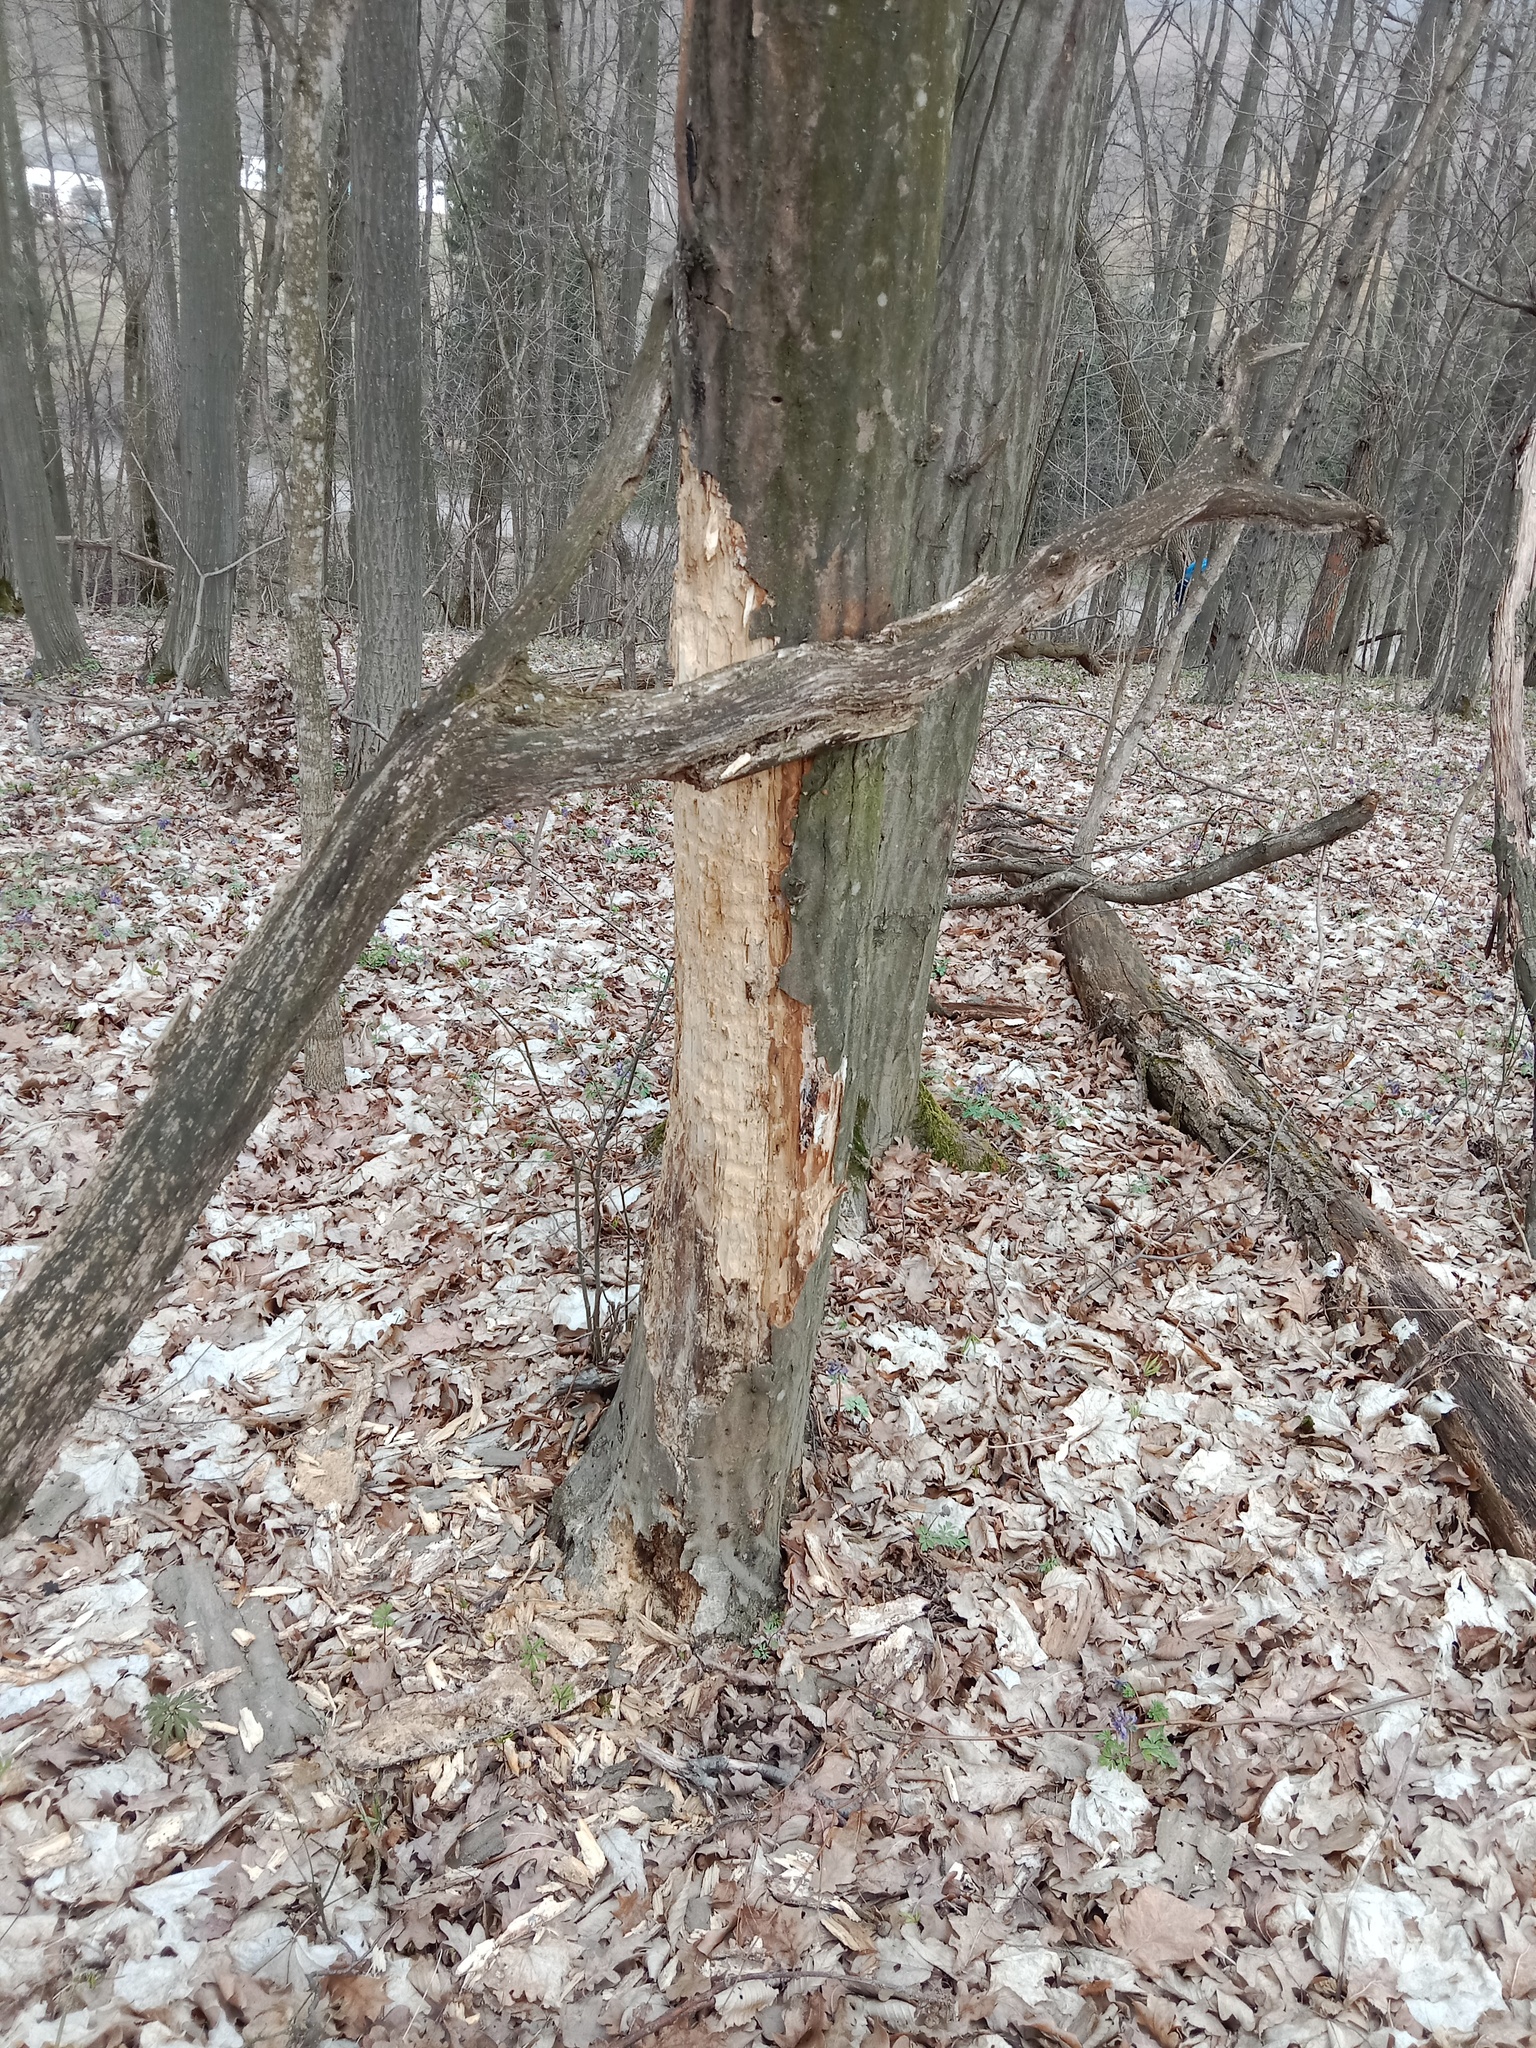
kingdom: Animalia
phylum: Chordata
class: Aves
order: Piciformes
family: Picidae
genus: Dryocopus
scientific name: Dryocopus martius
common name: Black woodpecker
